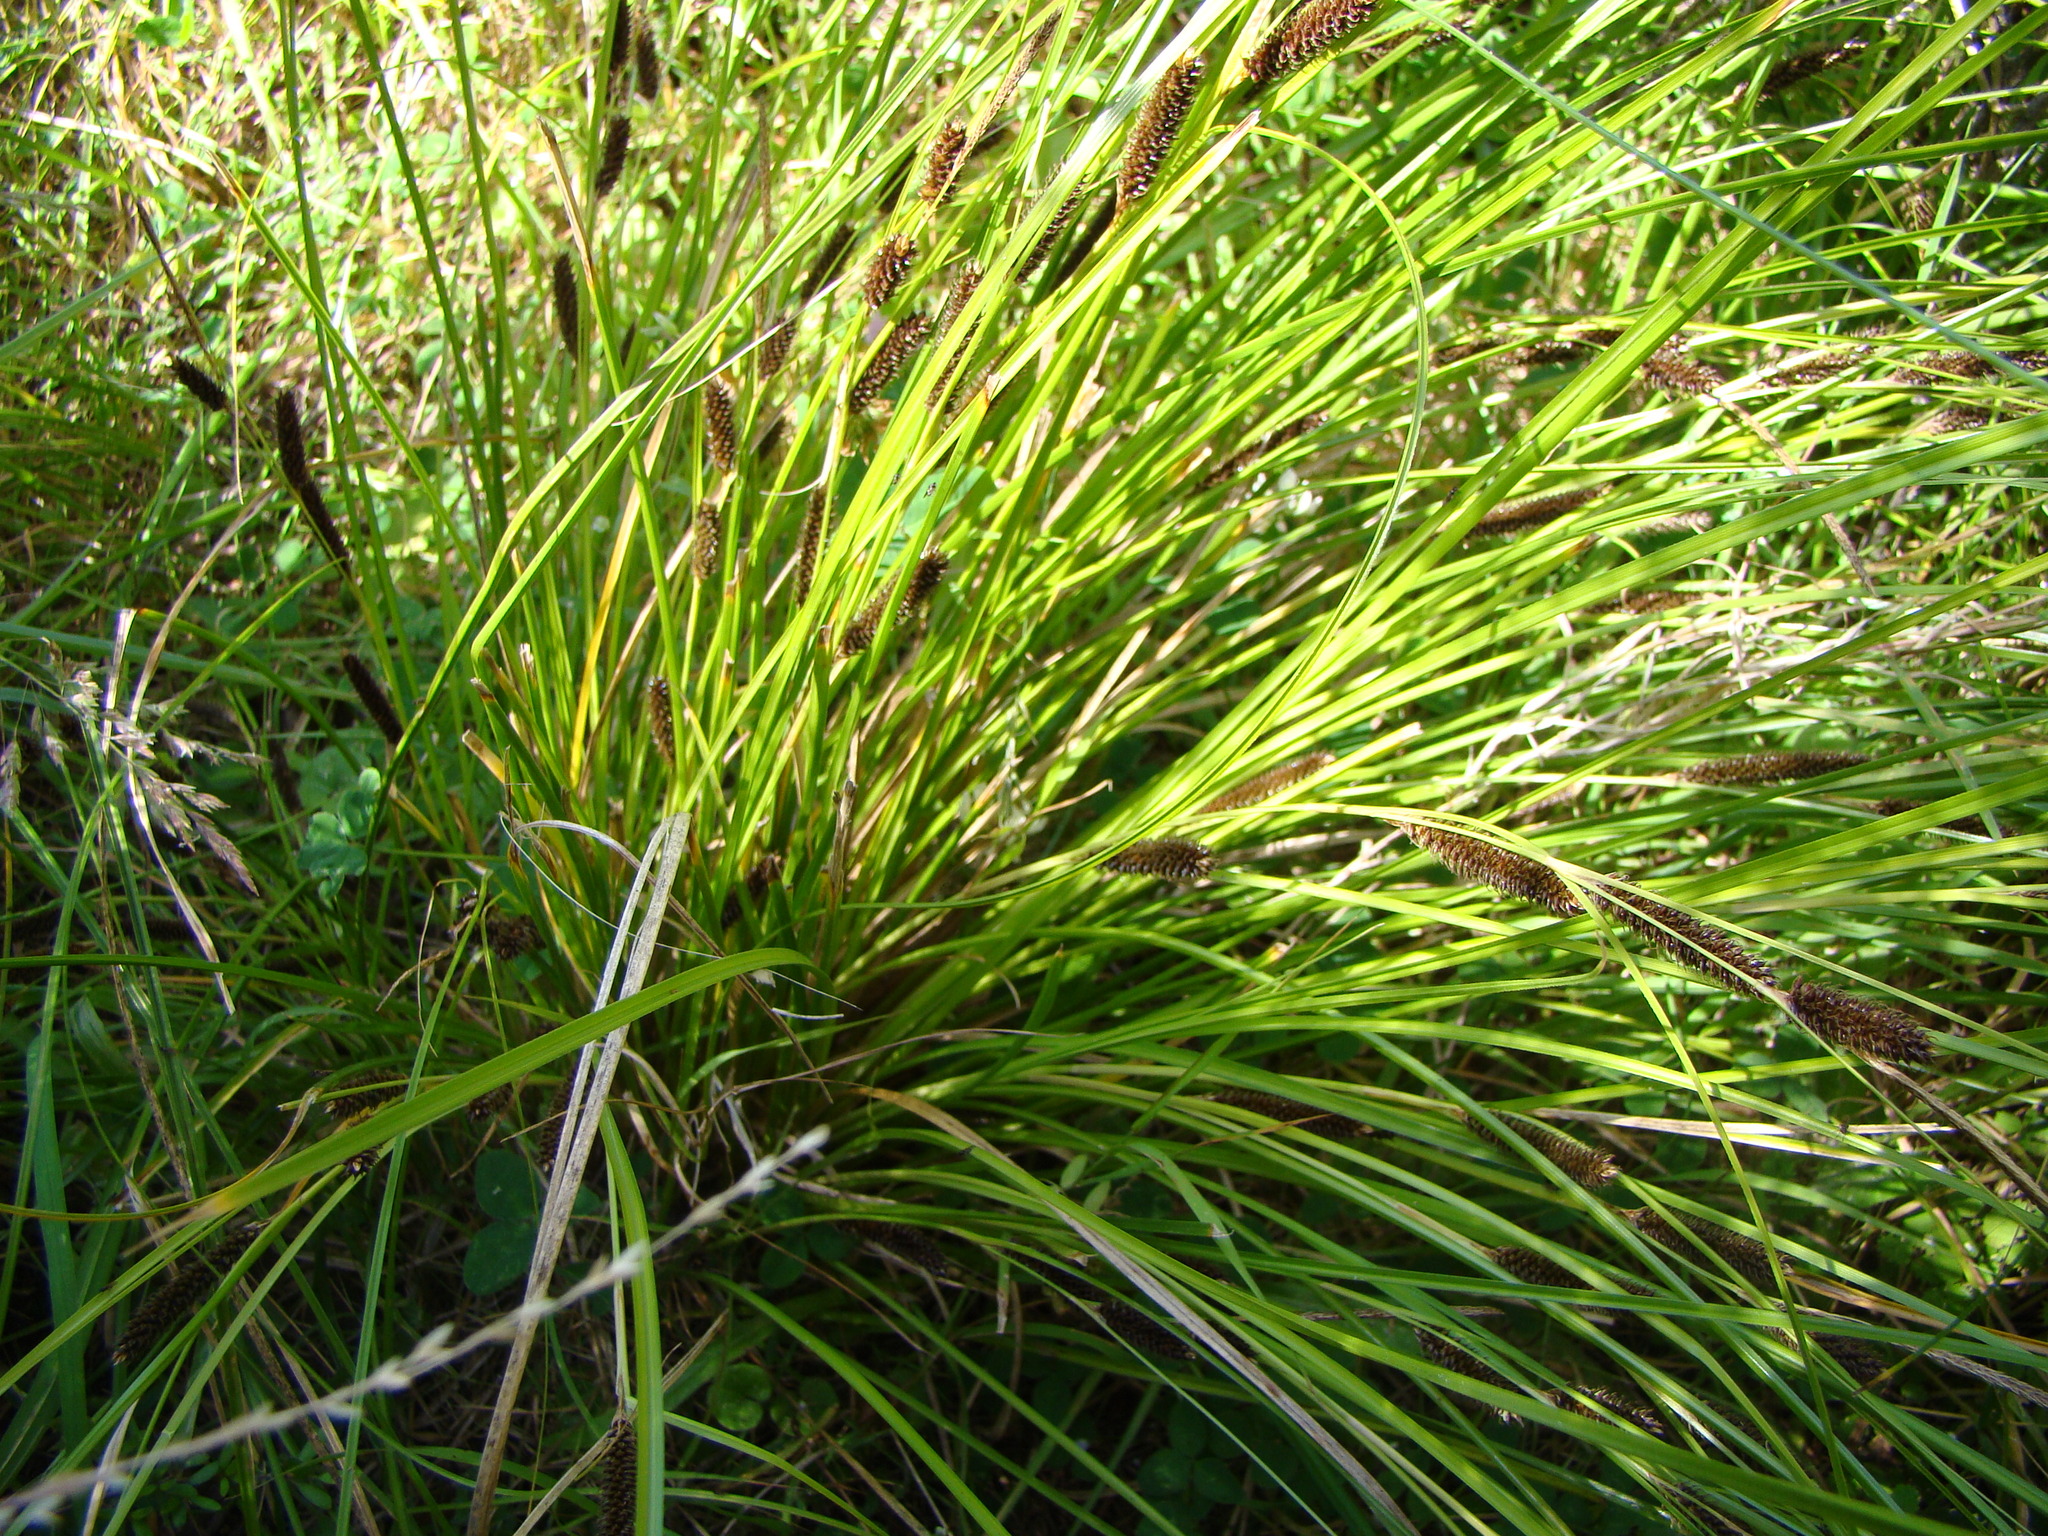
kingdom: Plantae
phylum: Tracheophyta
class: Liliopsida
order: Poales
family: Cyperaceae
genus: Carex
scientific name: Carex forsteri
